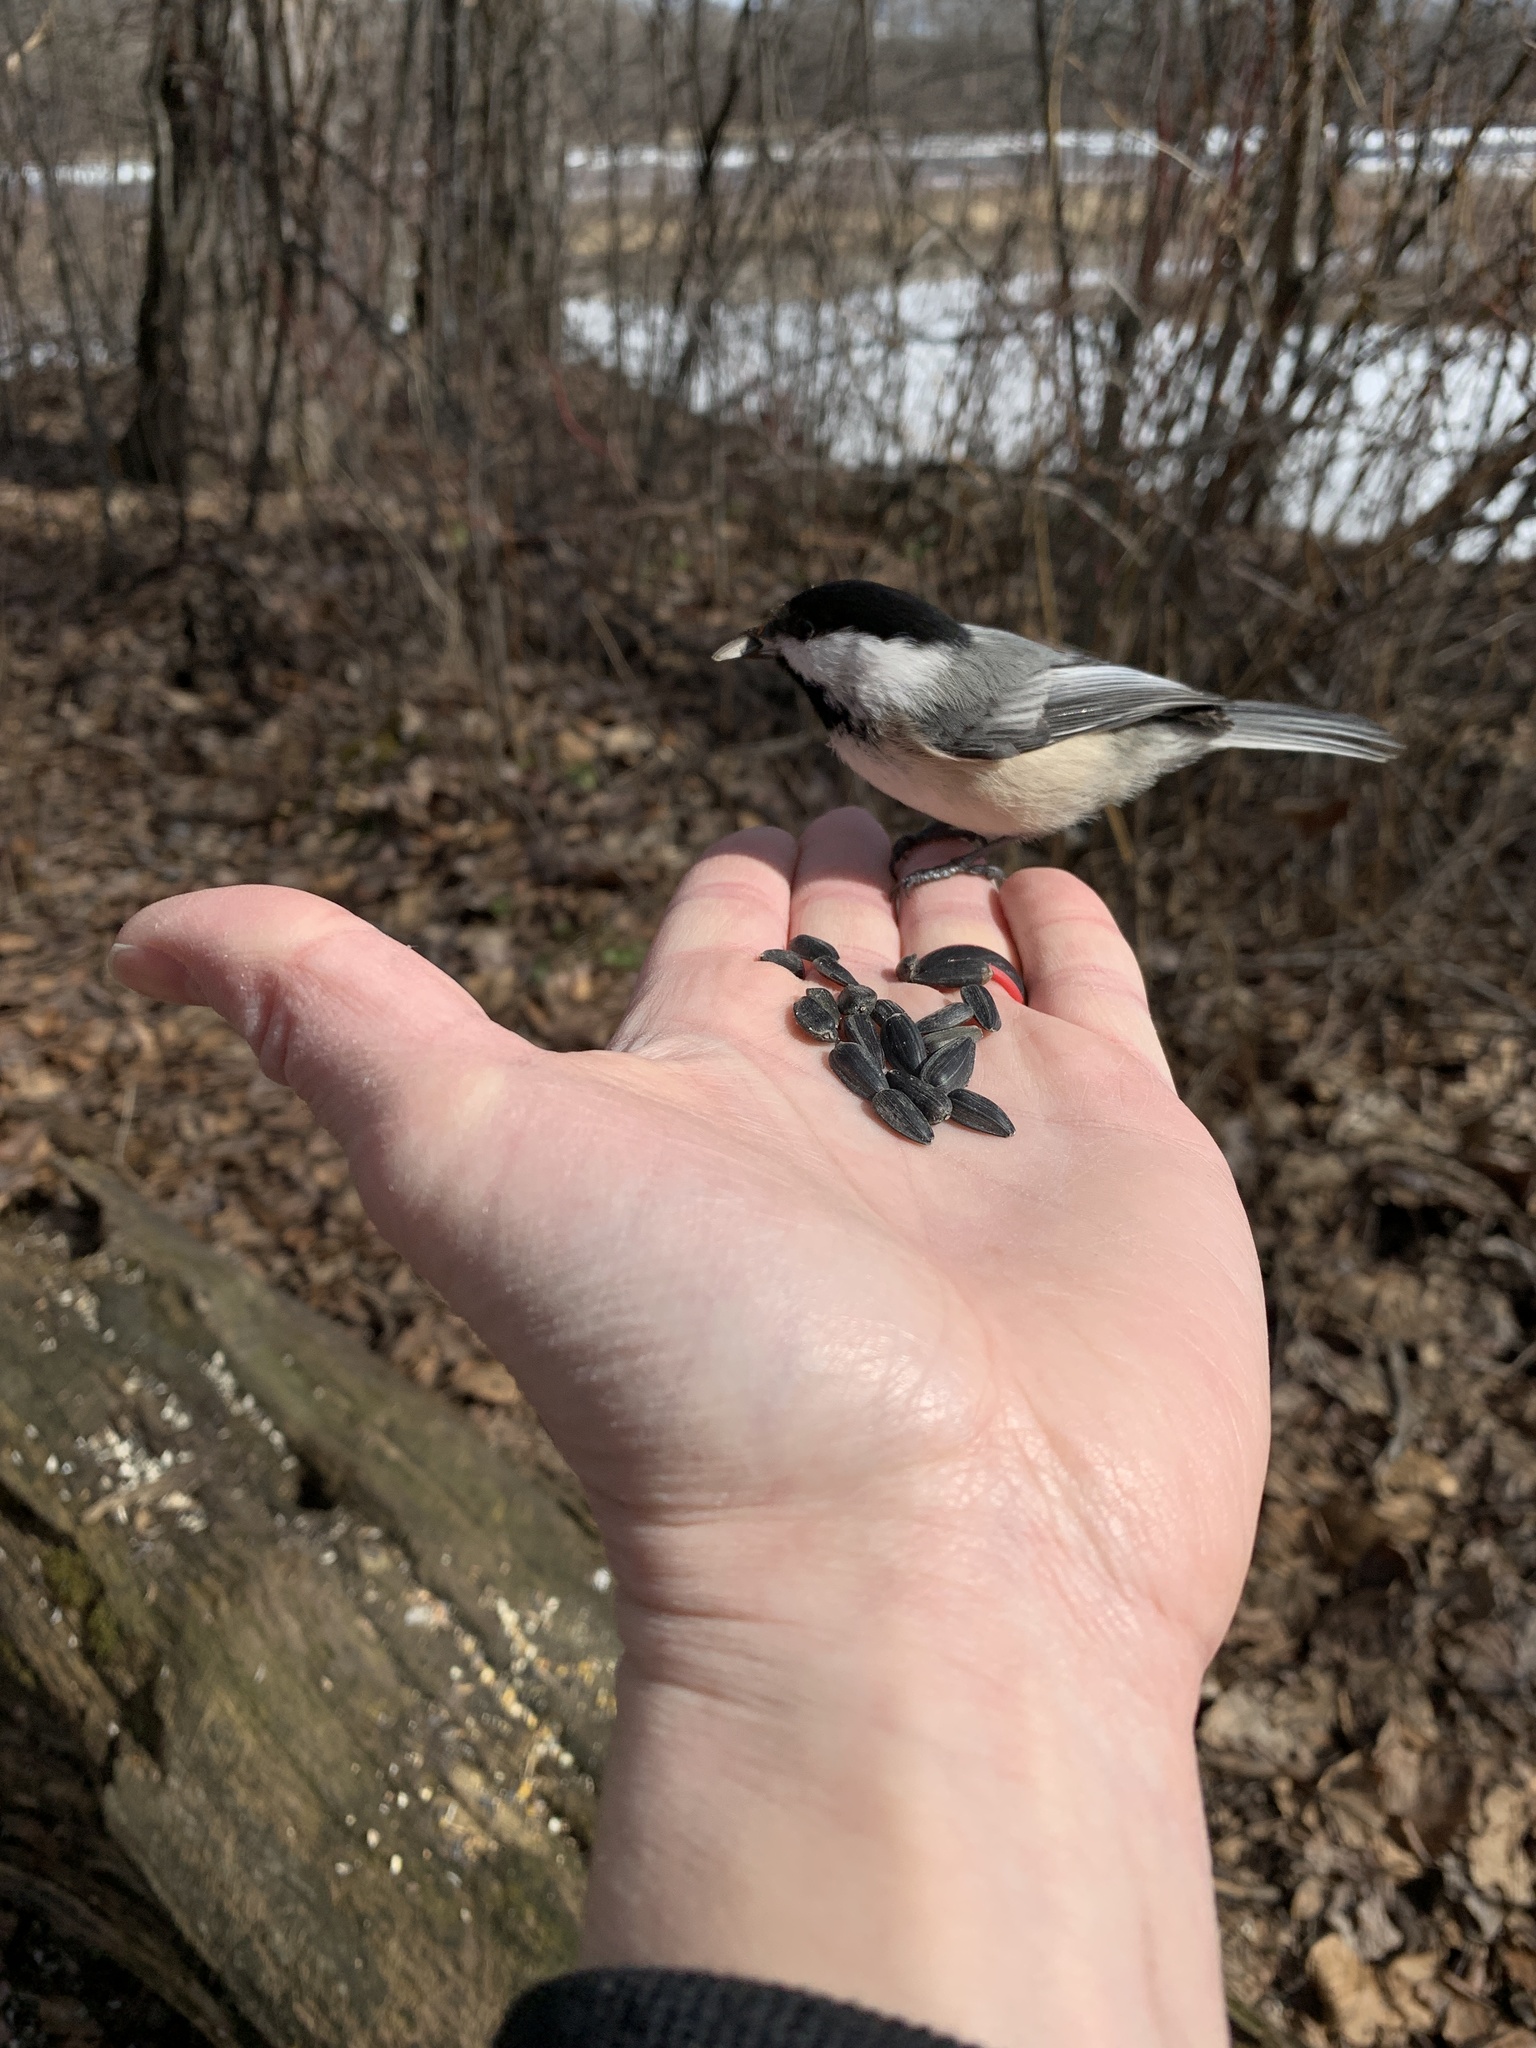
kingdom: Animalia
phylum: Chordata
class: Aves
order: Passeriformes
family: Paridae
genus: Poecile
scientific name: Poecile atricapillus
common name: Black-capped chickadee
